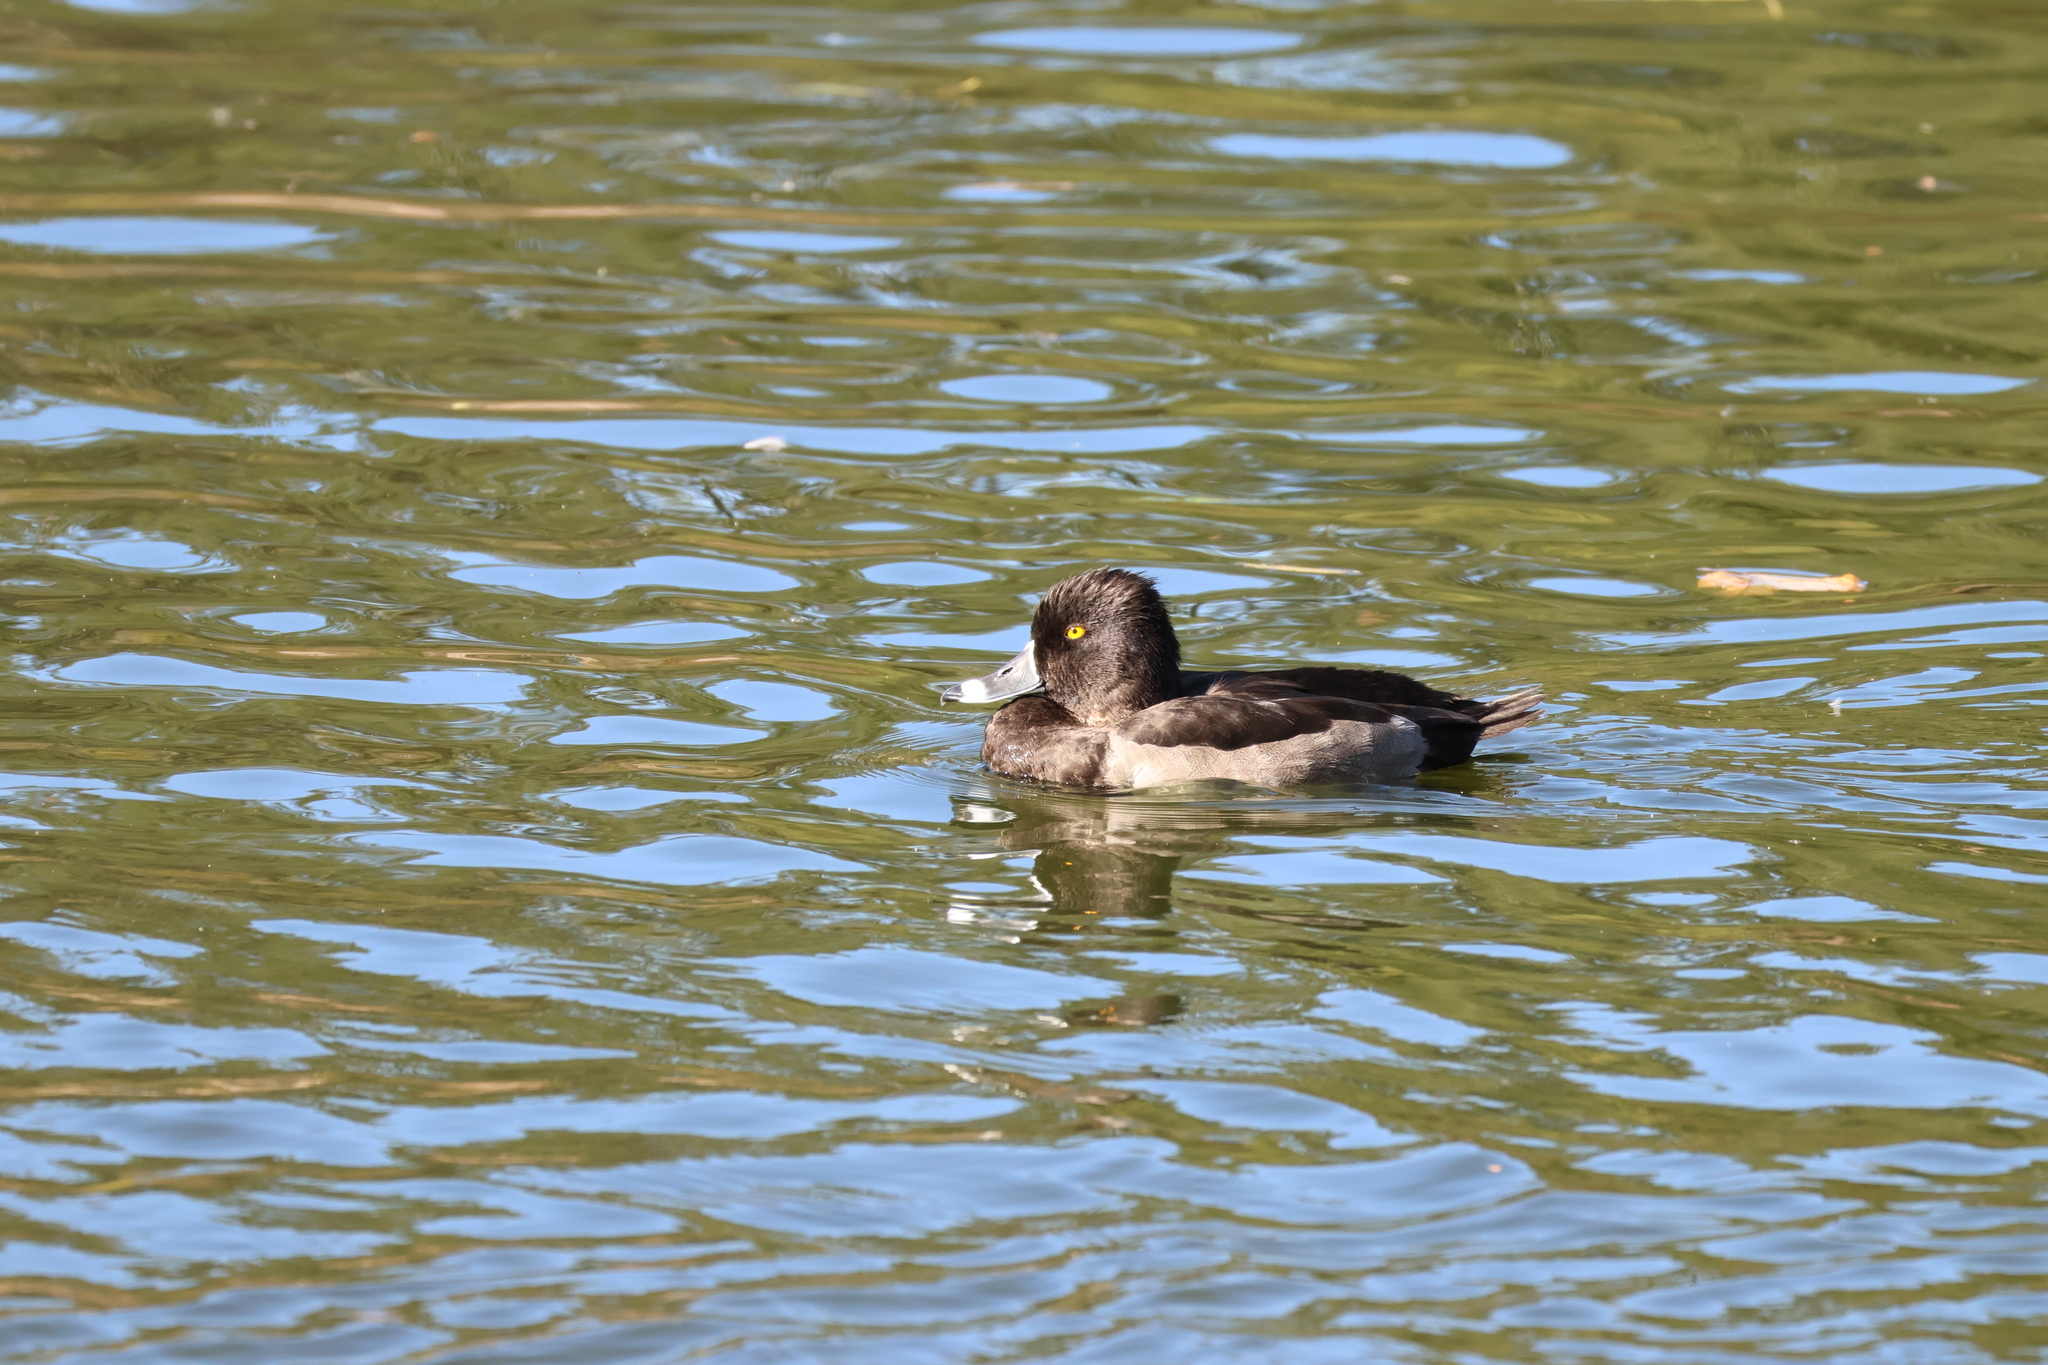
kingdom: Animalia
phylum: Chordata
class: Aves
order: Anseriformes
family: Anatidae
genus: Aythya
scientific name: Aythya collaris
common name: Ring-necked duck
